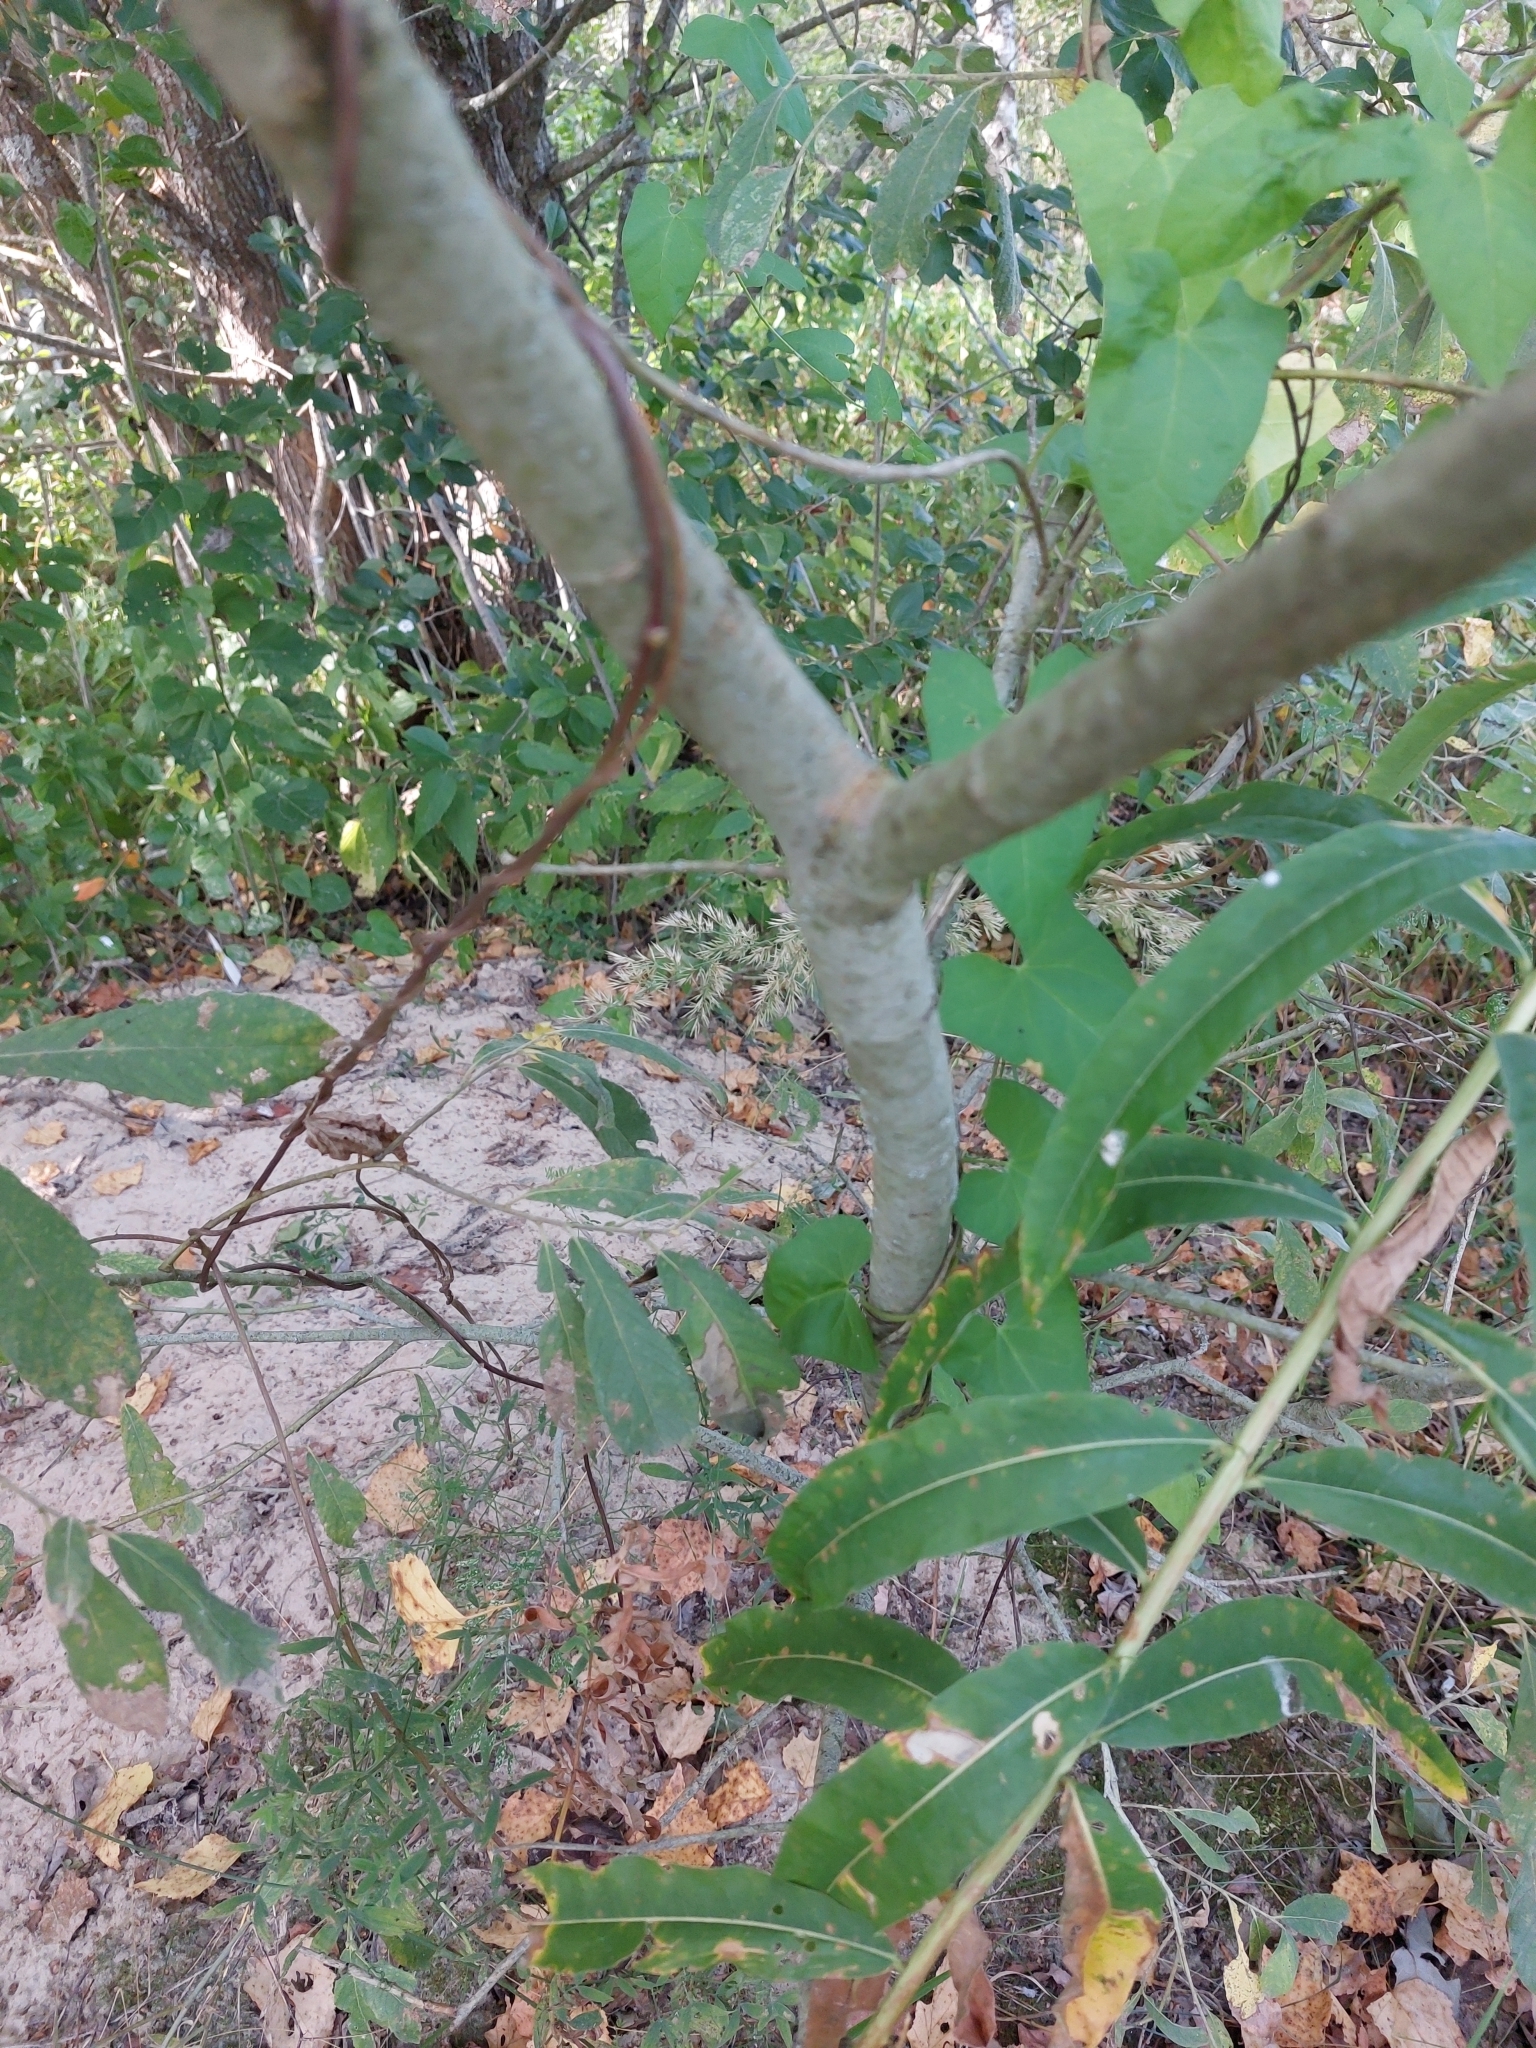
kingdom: Plantae
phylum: Tracheophyta
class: Magnoliopsida
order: Malpighiales
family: Salicaceae
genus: Salix
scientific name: Salix cinerea
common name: Common sallow
